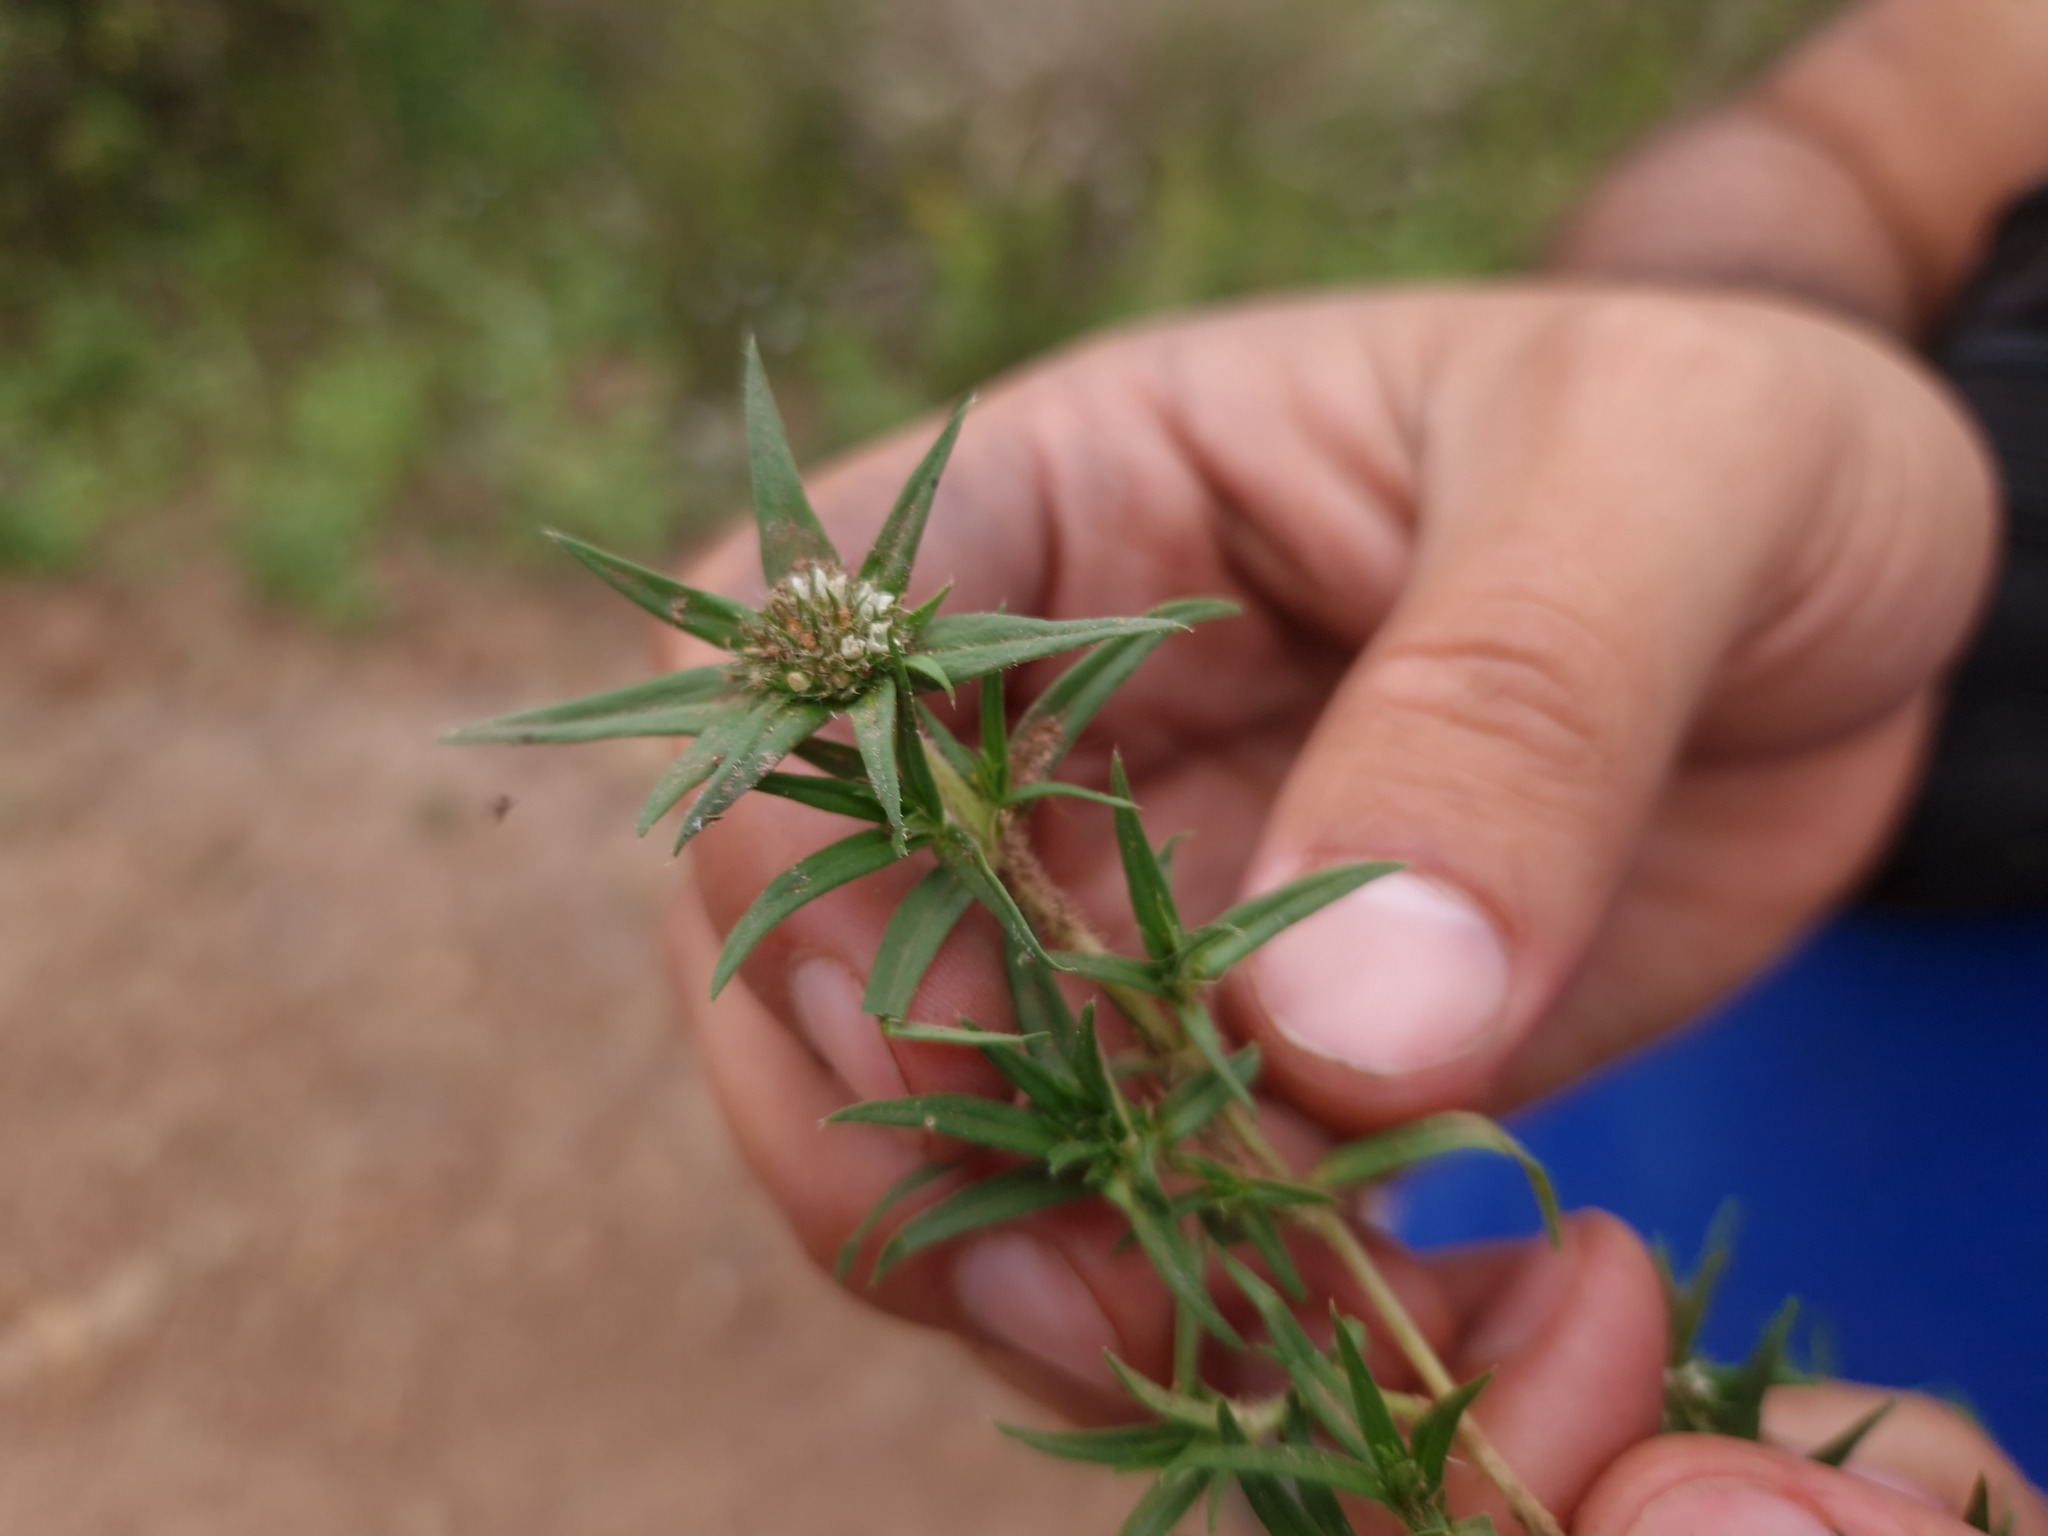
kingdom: Plantae
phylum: Tracheophyta
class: Magnoliopsida
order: Gentianales
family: Rubiaceae
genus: Richardia
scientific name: Richardia stellaris
